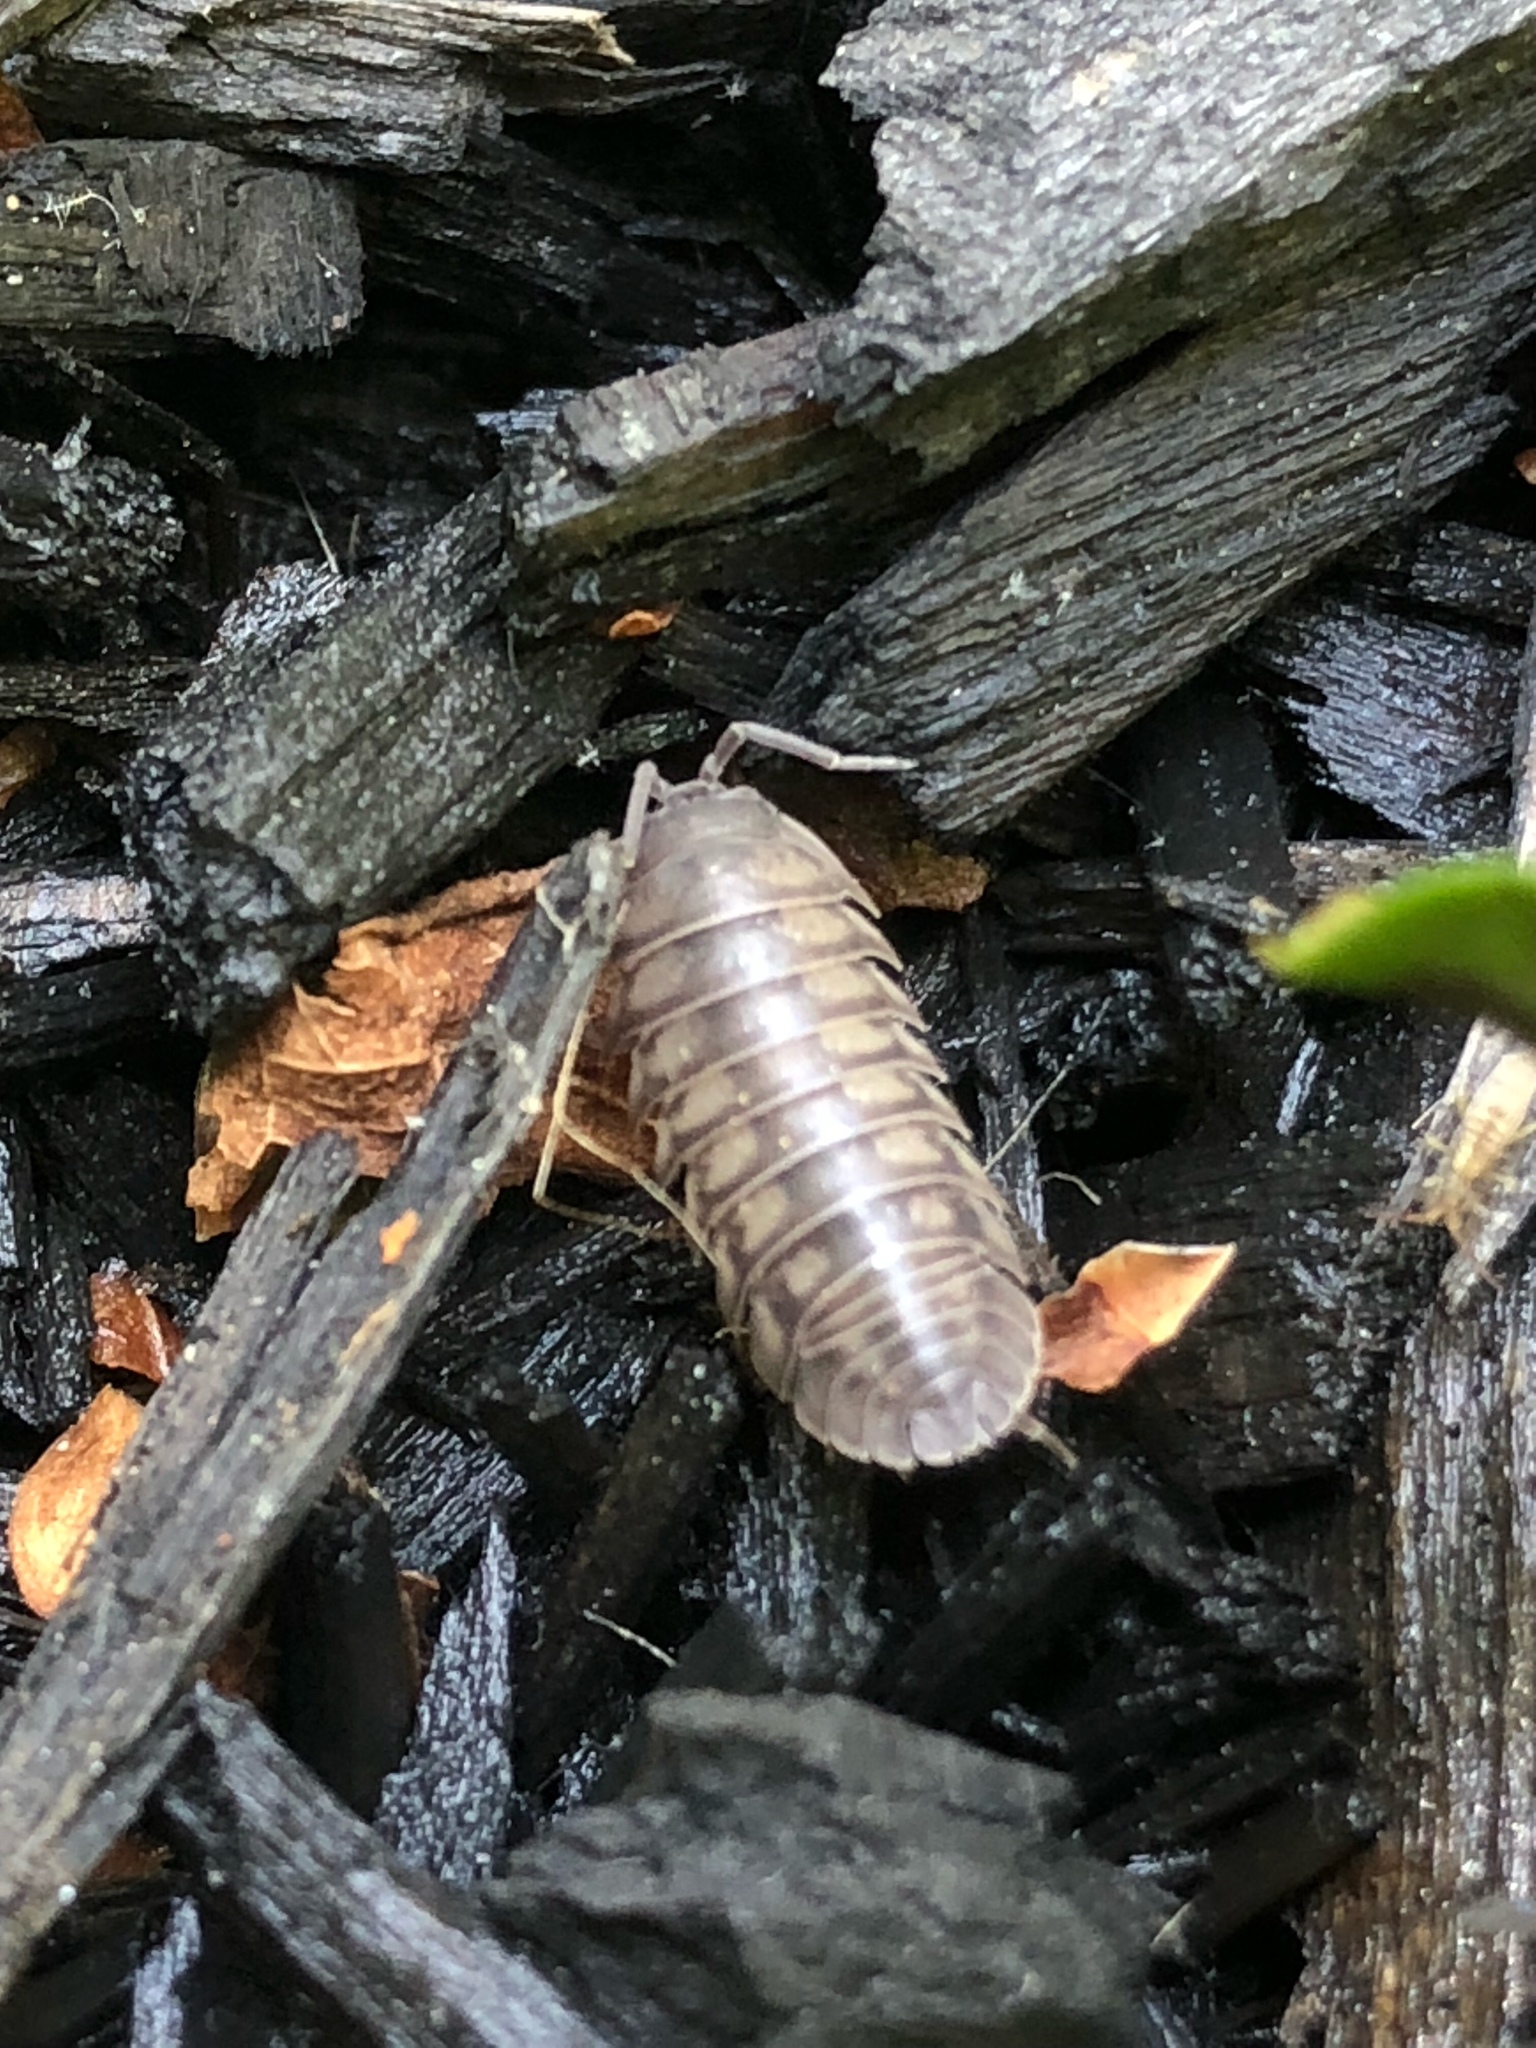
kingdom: Animalia
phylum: Arthropoda
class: Malacostraca
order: Isopoda
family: Armadillidiidae
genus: Armadillidium
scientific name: Armadillidium nasatum
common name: Isopod
